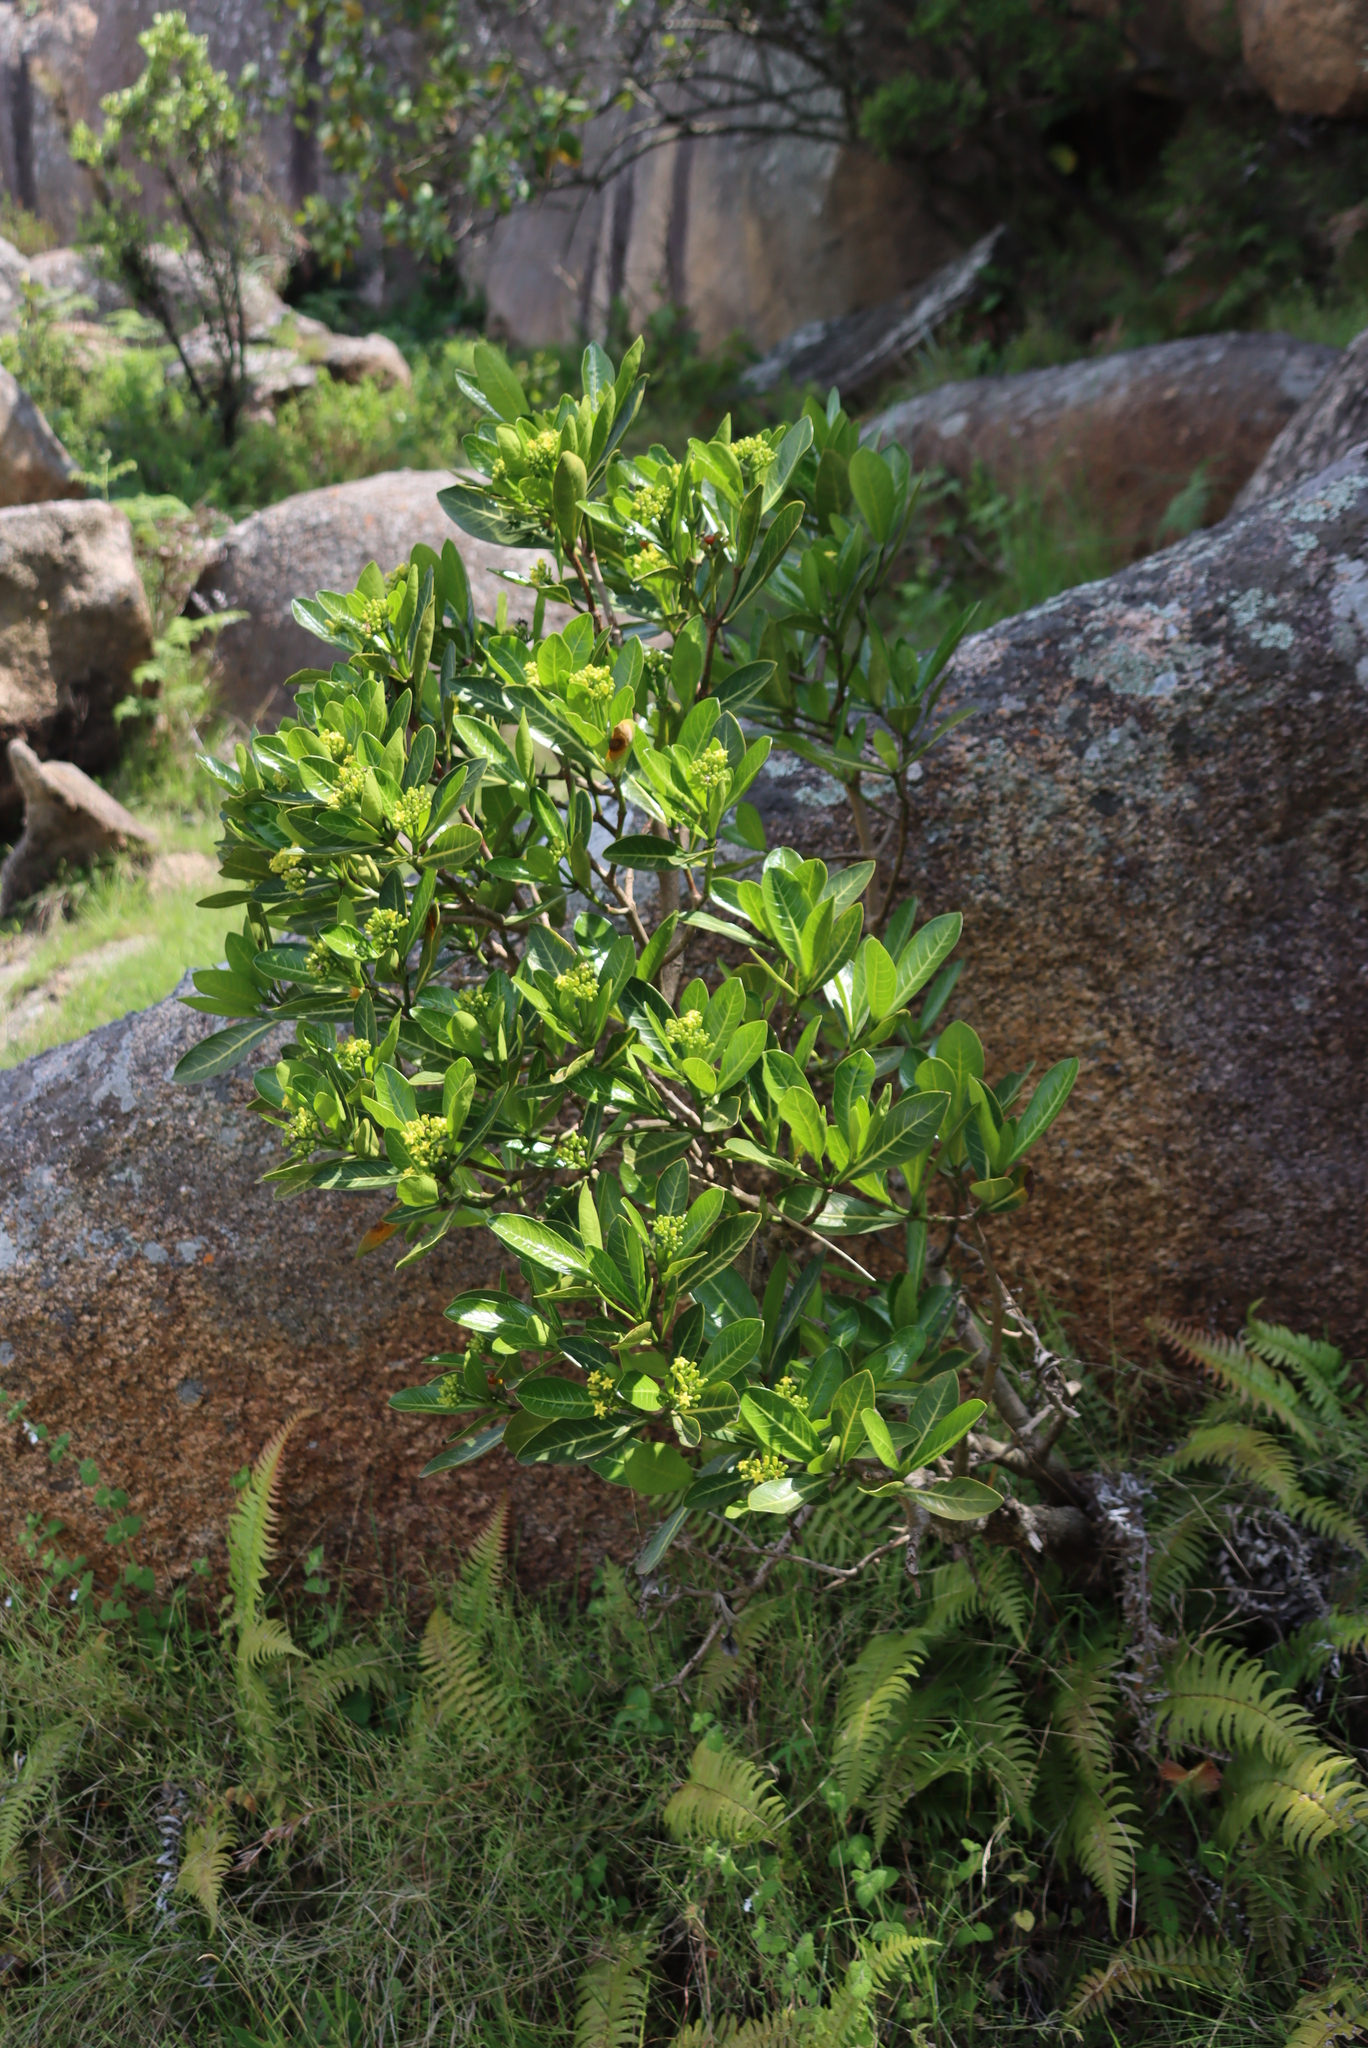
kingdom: Plantae
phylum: Tracheophyta
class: Magnoliopsida
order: Gentianales
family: Rubiaceae
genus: Psychotria
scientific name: Psychotria
